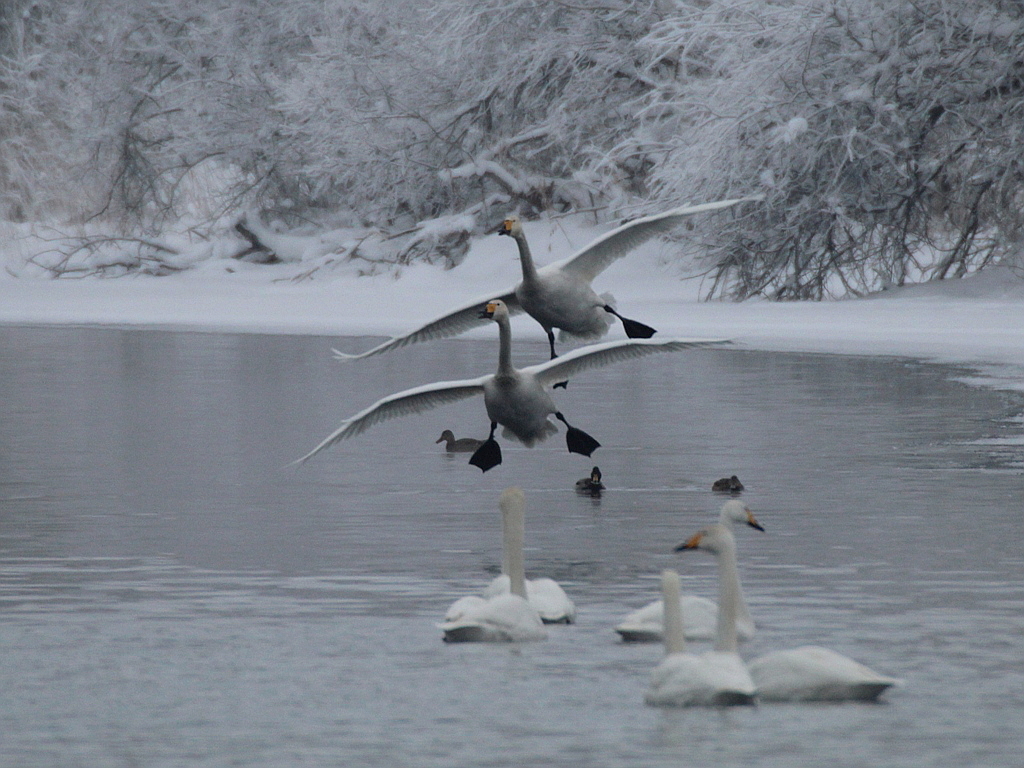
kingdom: Animalia
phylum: Chordata
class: Aves
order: Anseriformes
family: Anatidae
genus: Cygnus
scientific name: Cygnus cygnus
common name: Whooper swan
